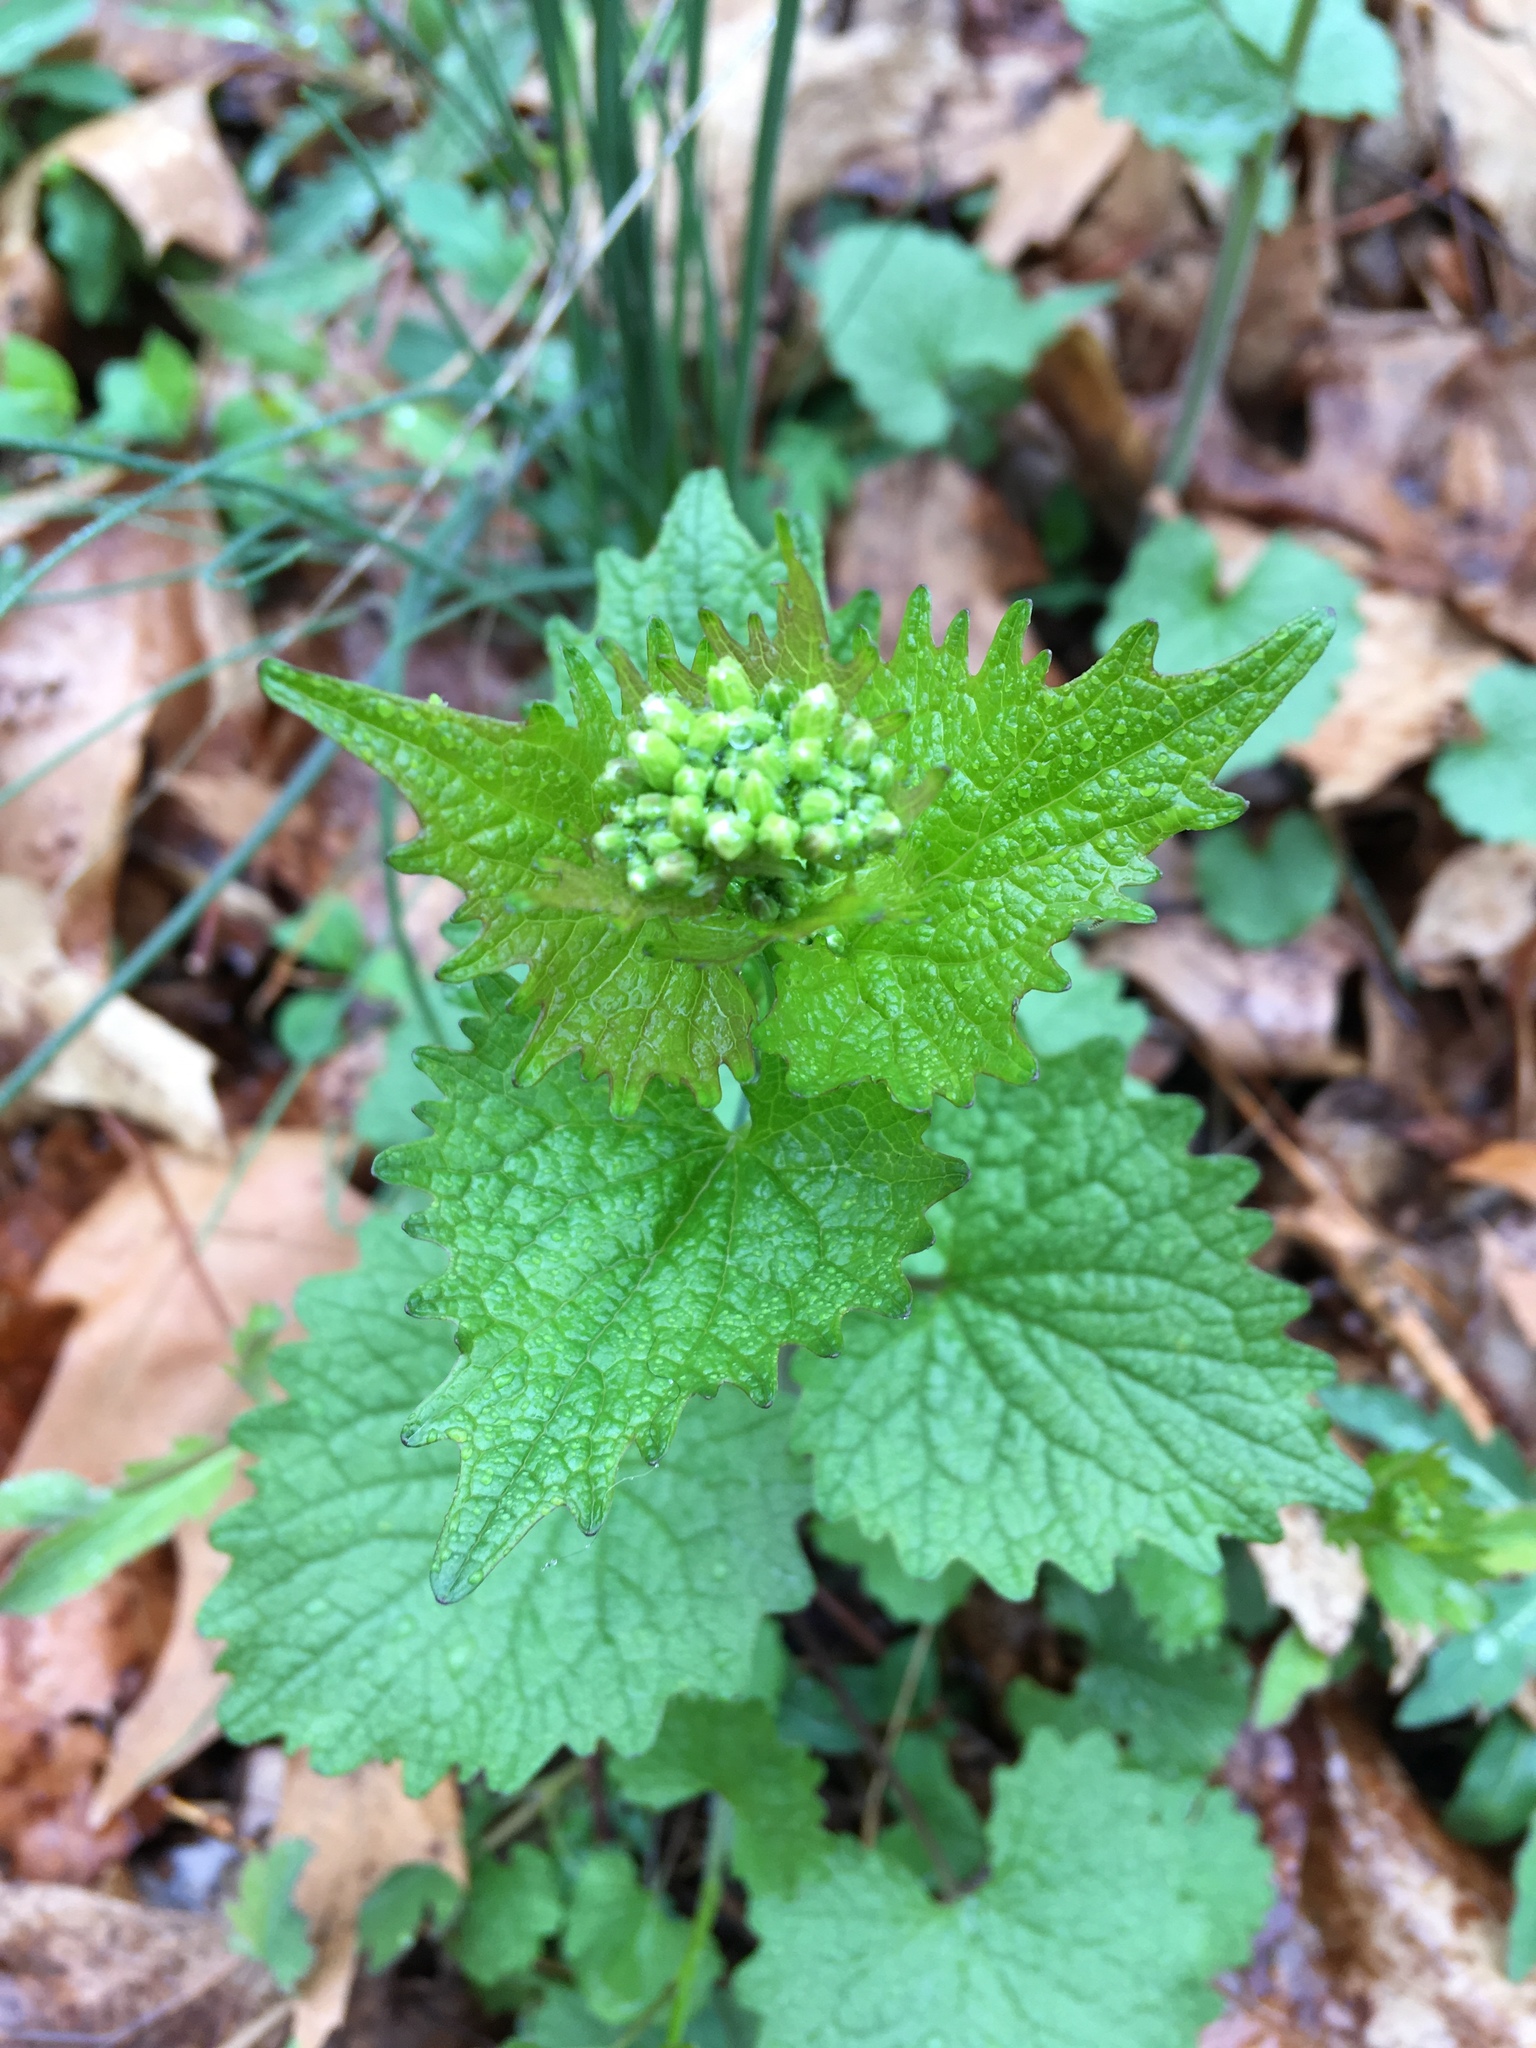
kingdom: Plantae
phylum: Tracheophyta
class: Magnoliopsida
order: Brassicales
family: Brassicaceae
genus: Alliaria
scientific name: Alliaria petiolata
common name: Garlic mustard
